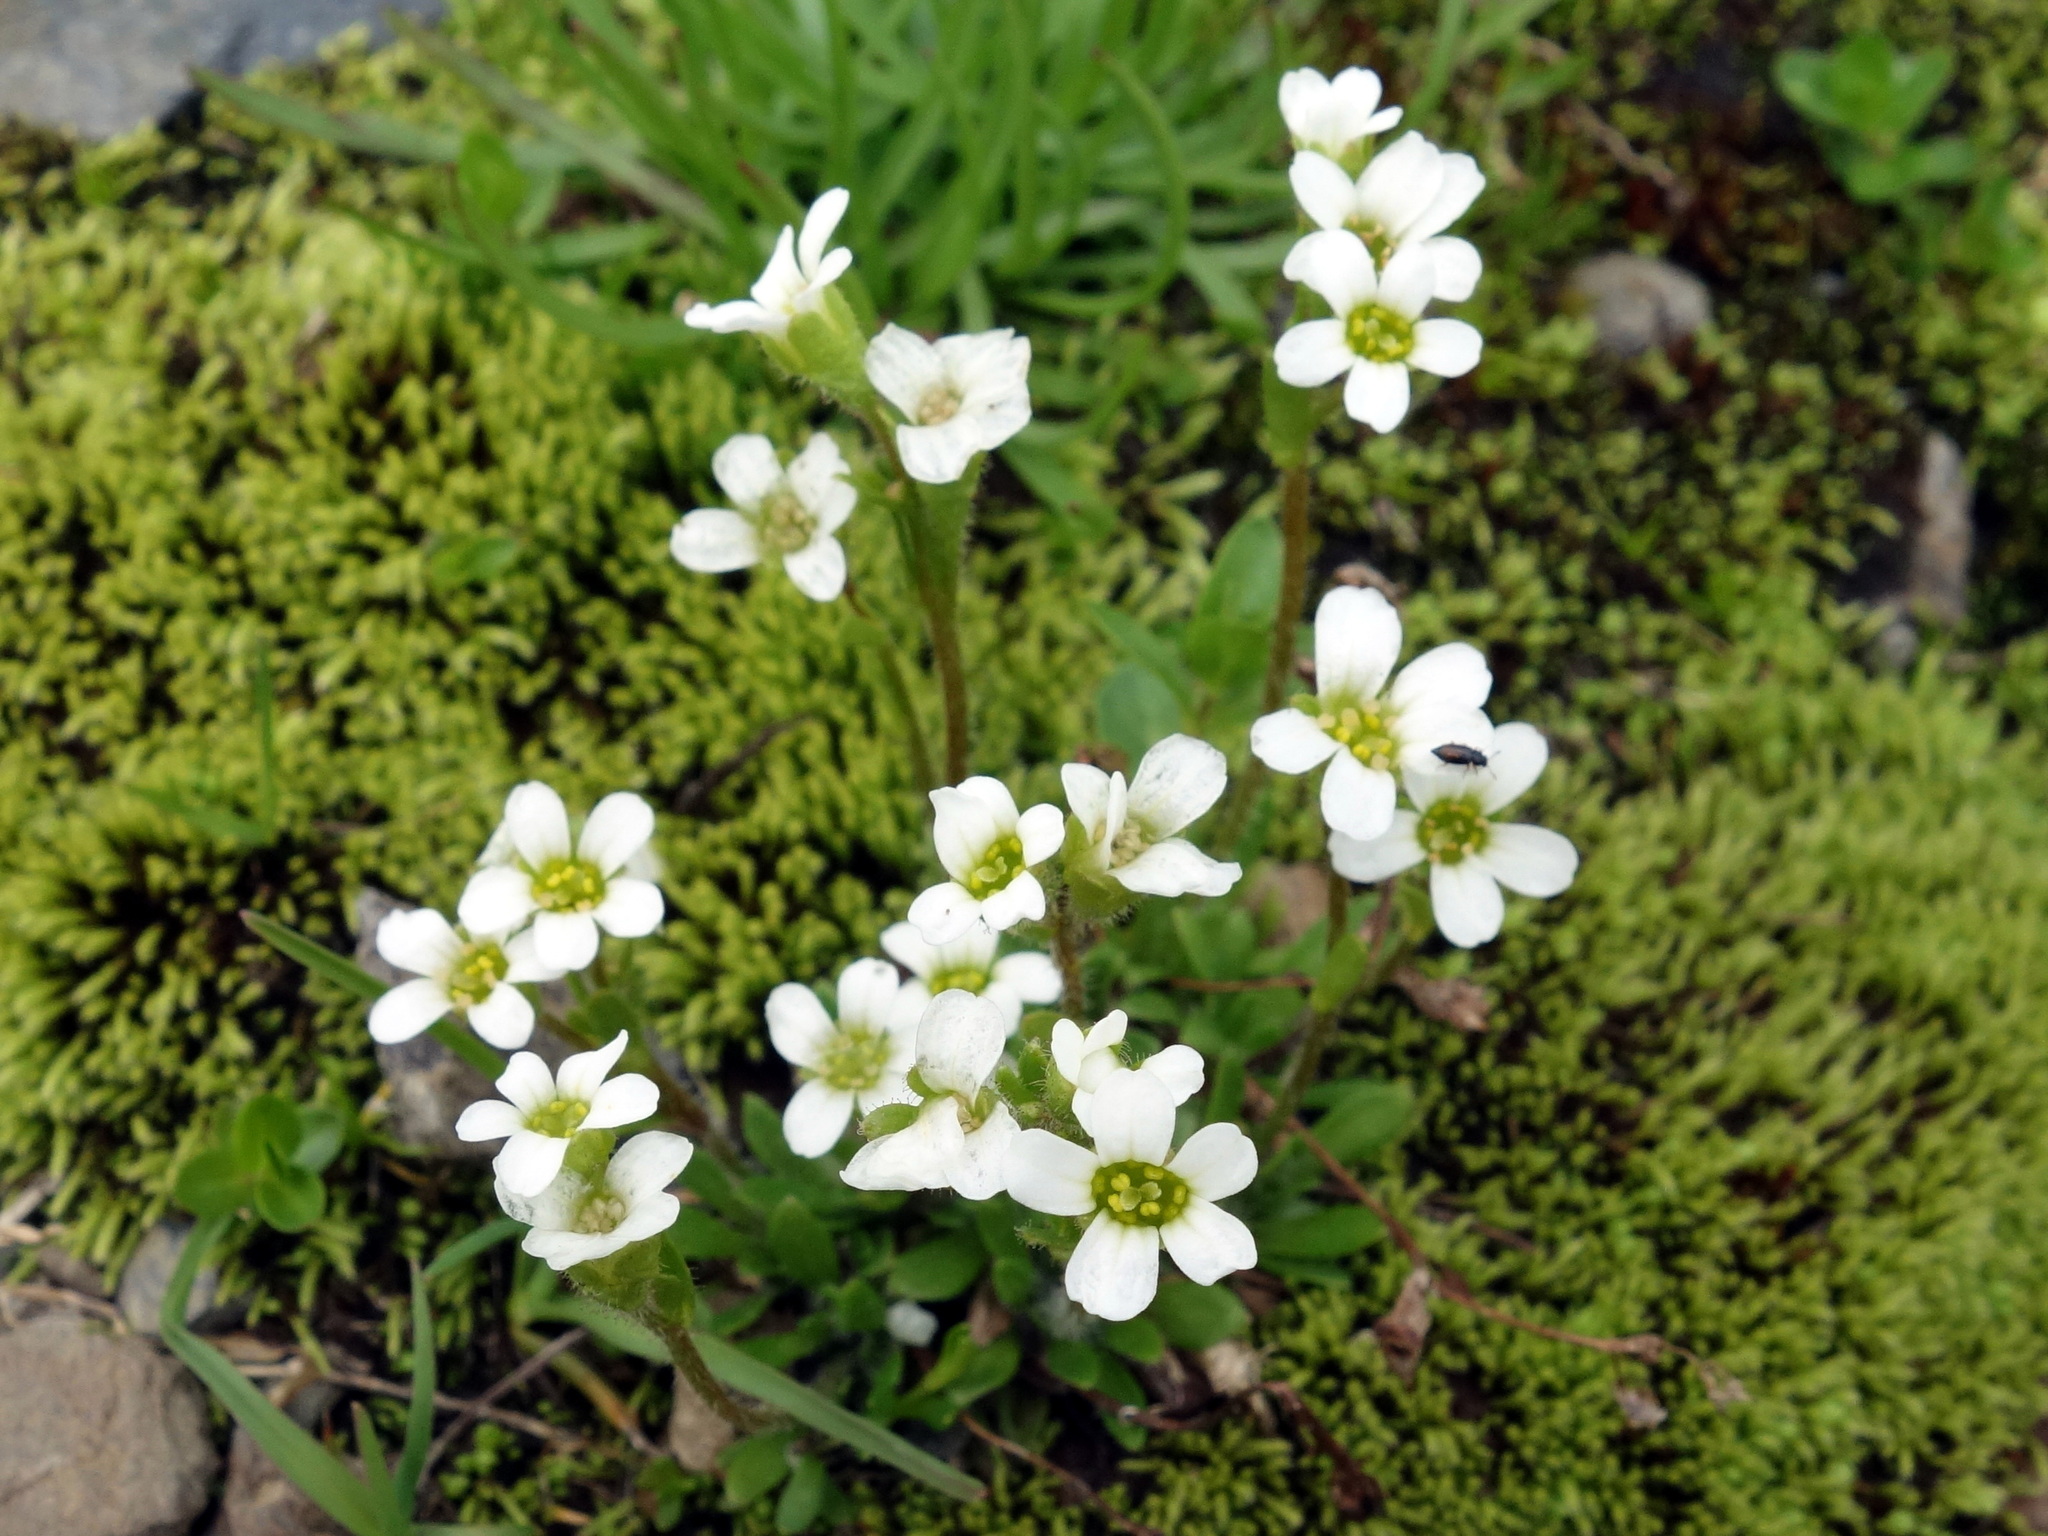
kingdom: Plantae
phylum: Tracheophyta
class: Magnoliopsida
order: Saxifragales
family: Saxifragaceae
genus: Saxifraga
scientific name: Saxifraga androsacea
